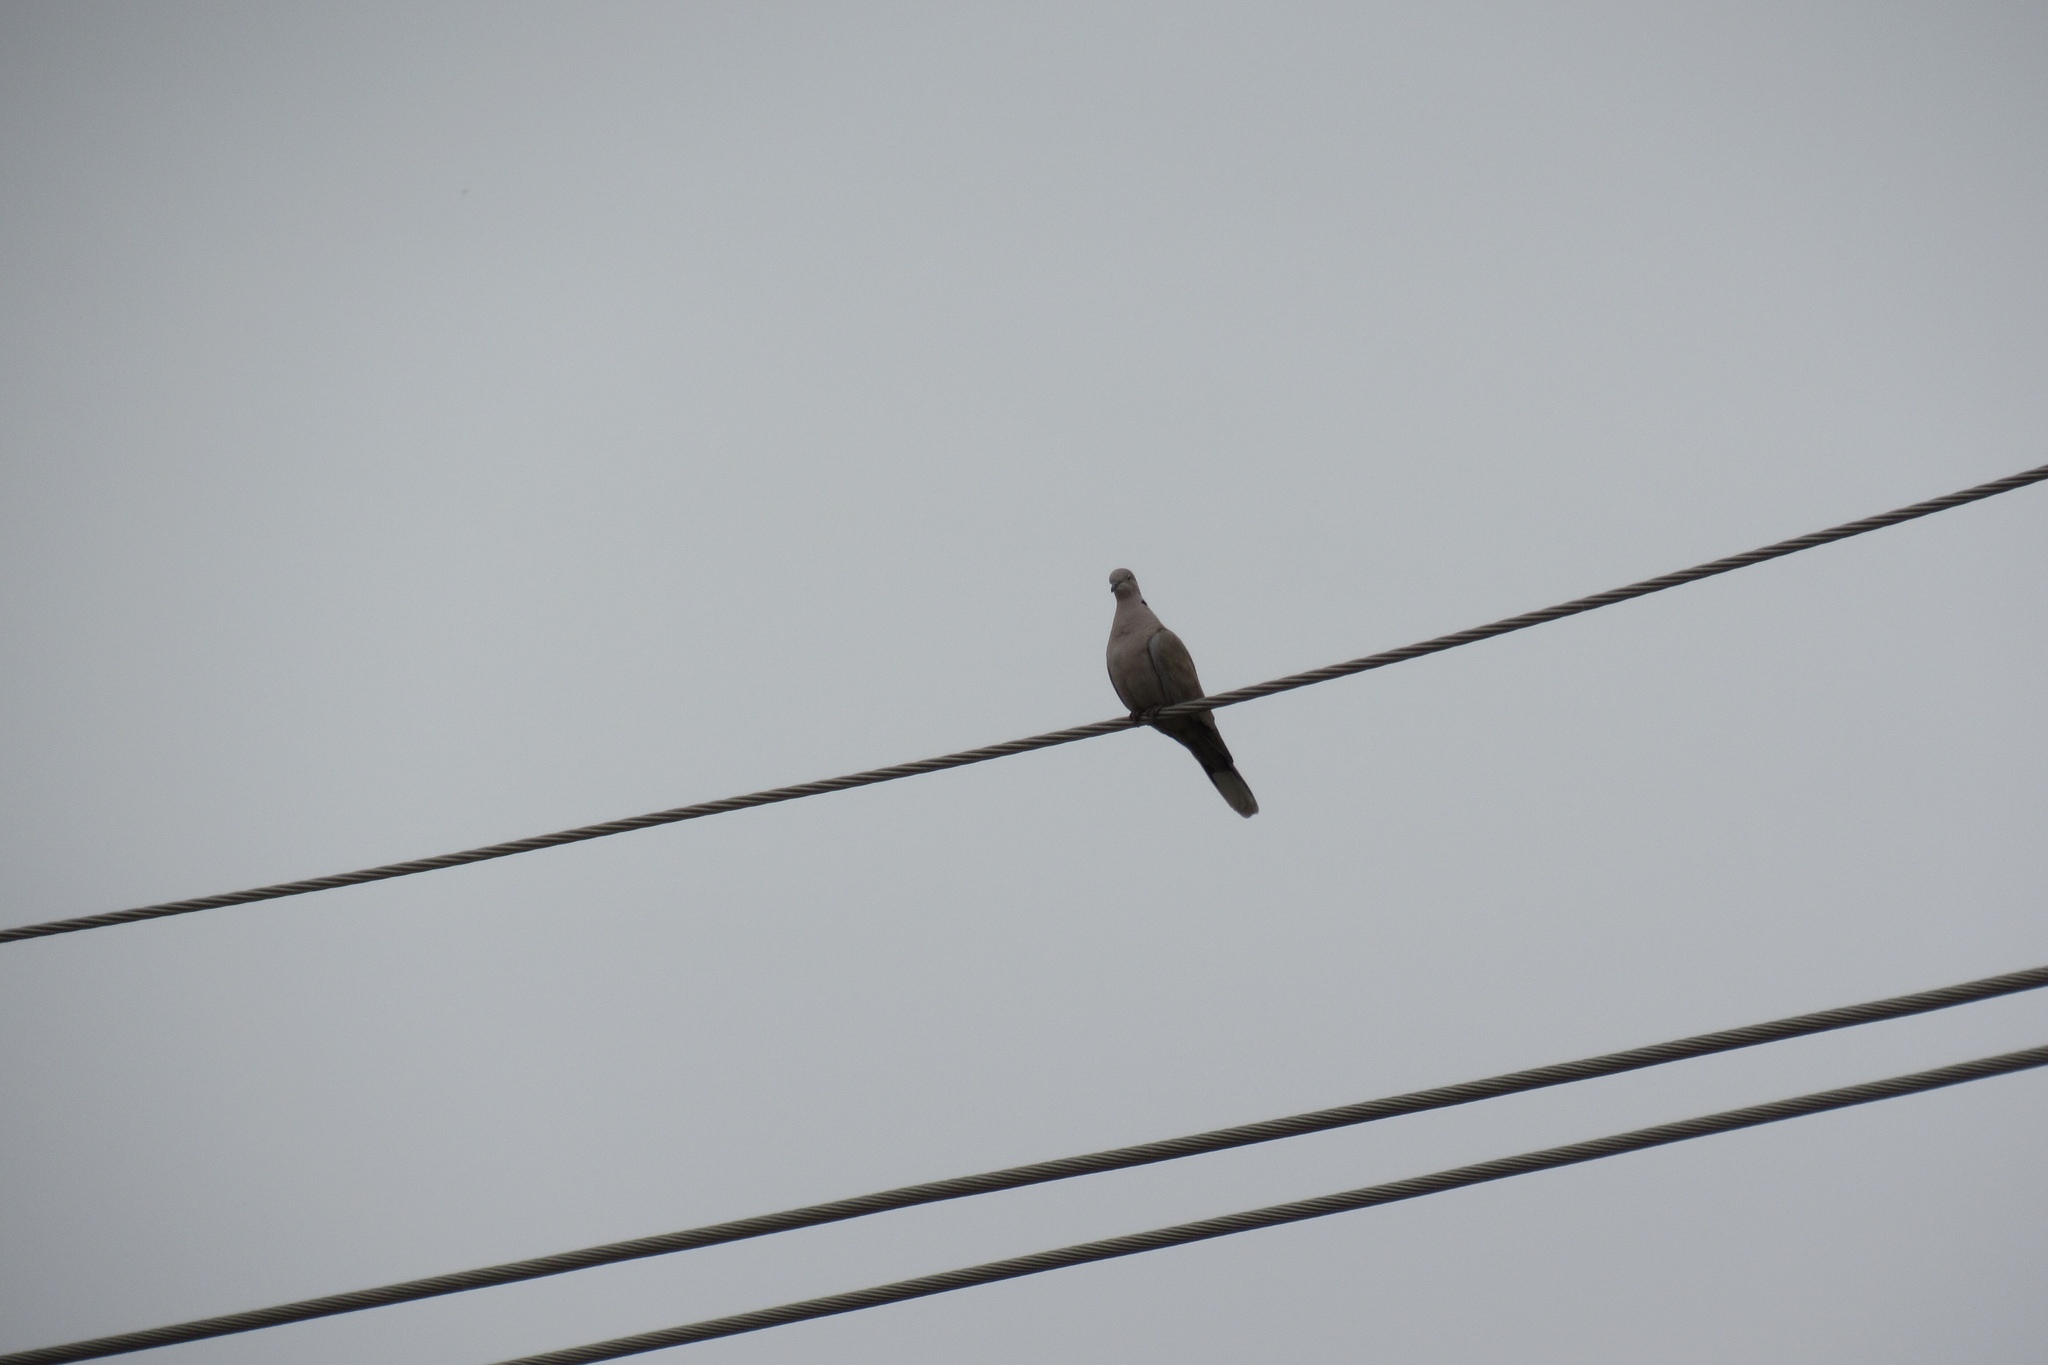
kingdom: Animalia
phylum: Chordata
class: Aves
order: Columbiformes
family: Columbidae
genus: Streptopelia
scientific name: Streptopelia decaocto
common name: Eurasian collared dove
